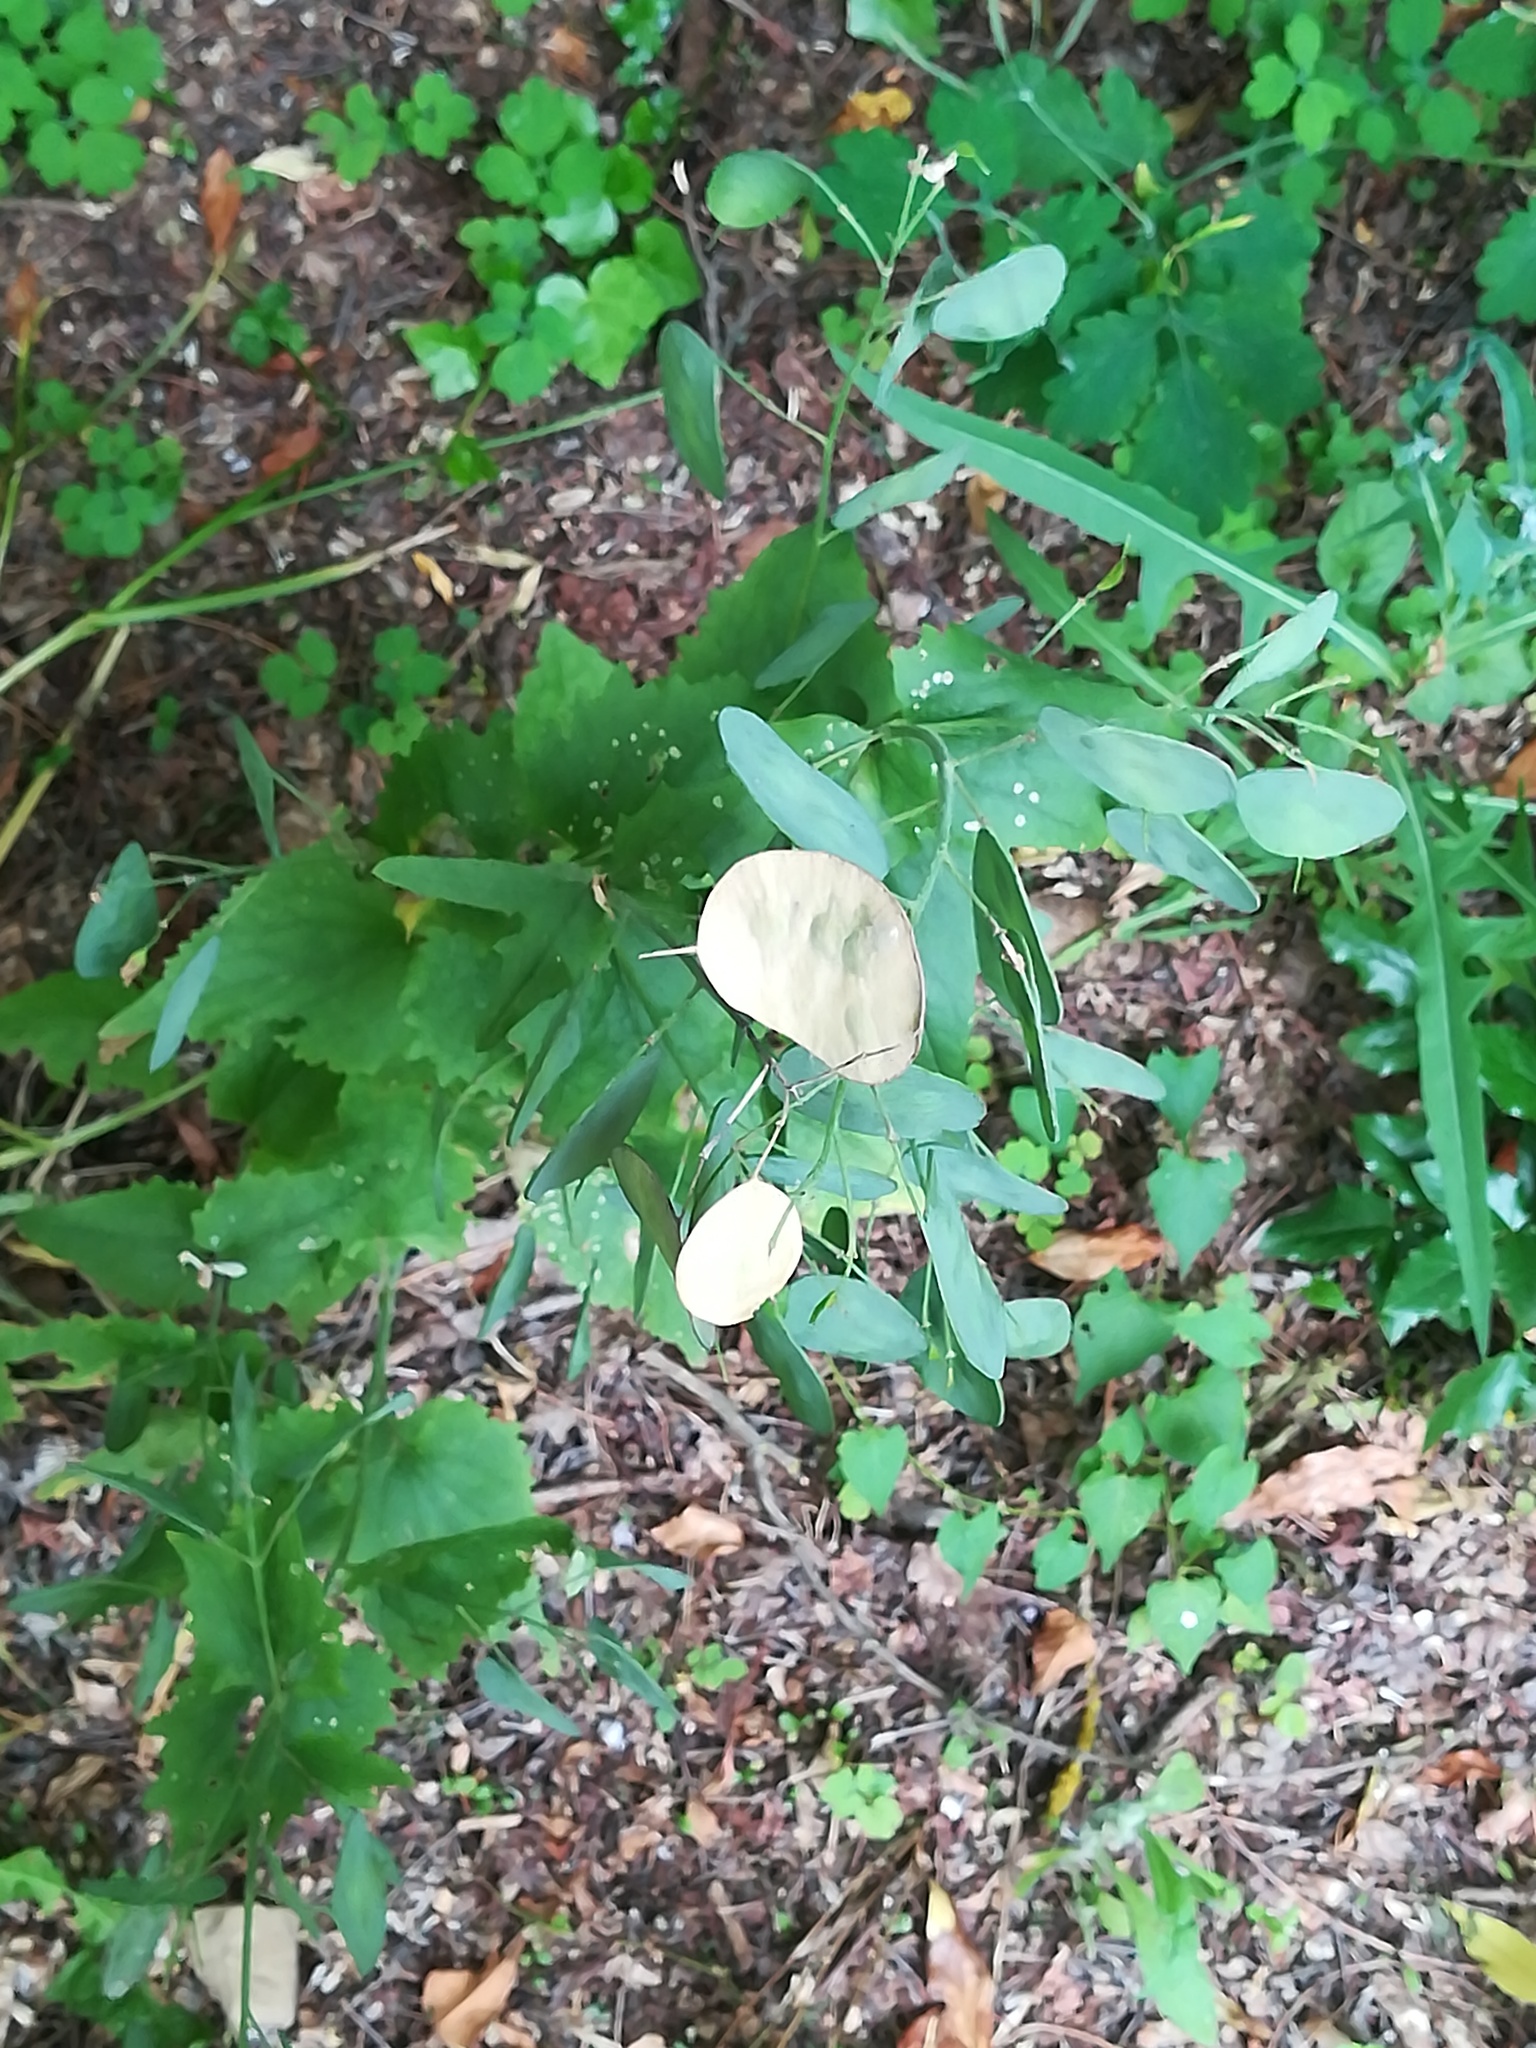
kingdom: Plantae
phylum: Tracheophyta
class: Magnoliopsida
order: Brassicales
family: Brassicaceae
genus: Lunaria
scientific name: Lunaria annua
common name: Honesty
